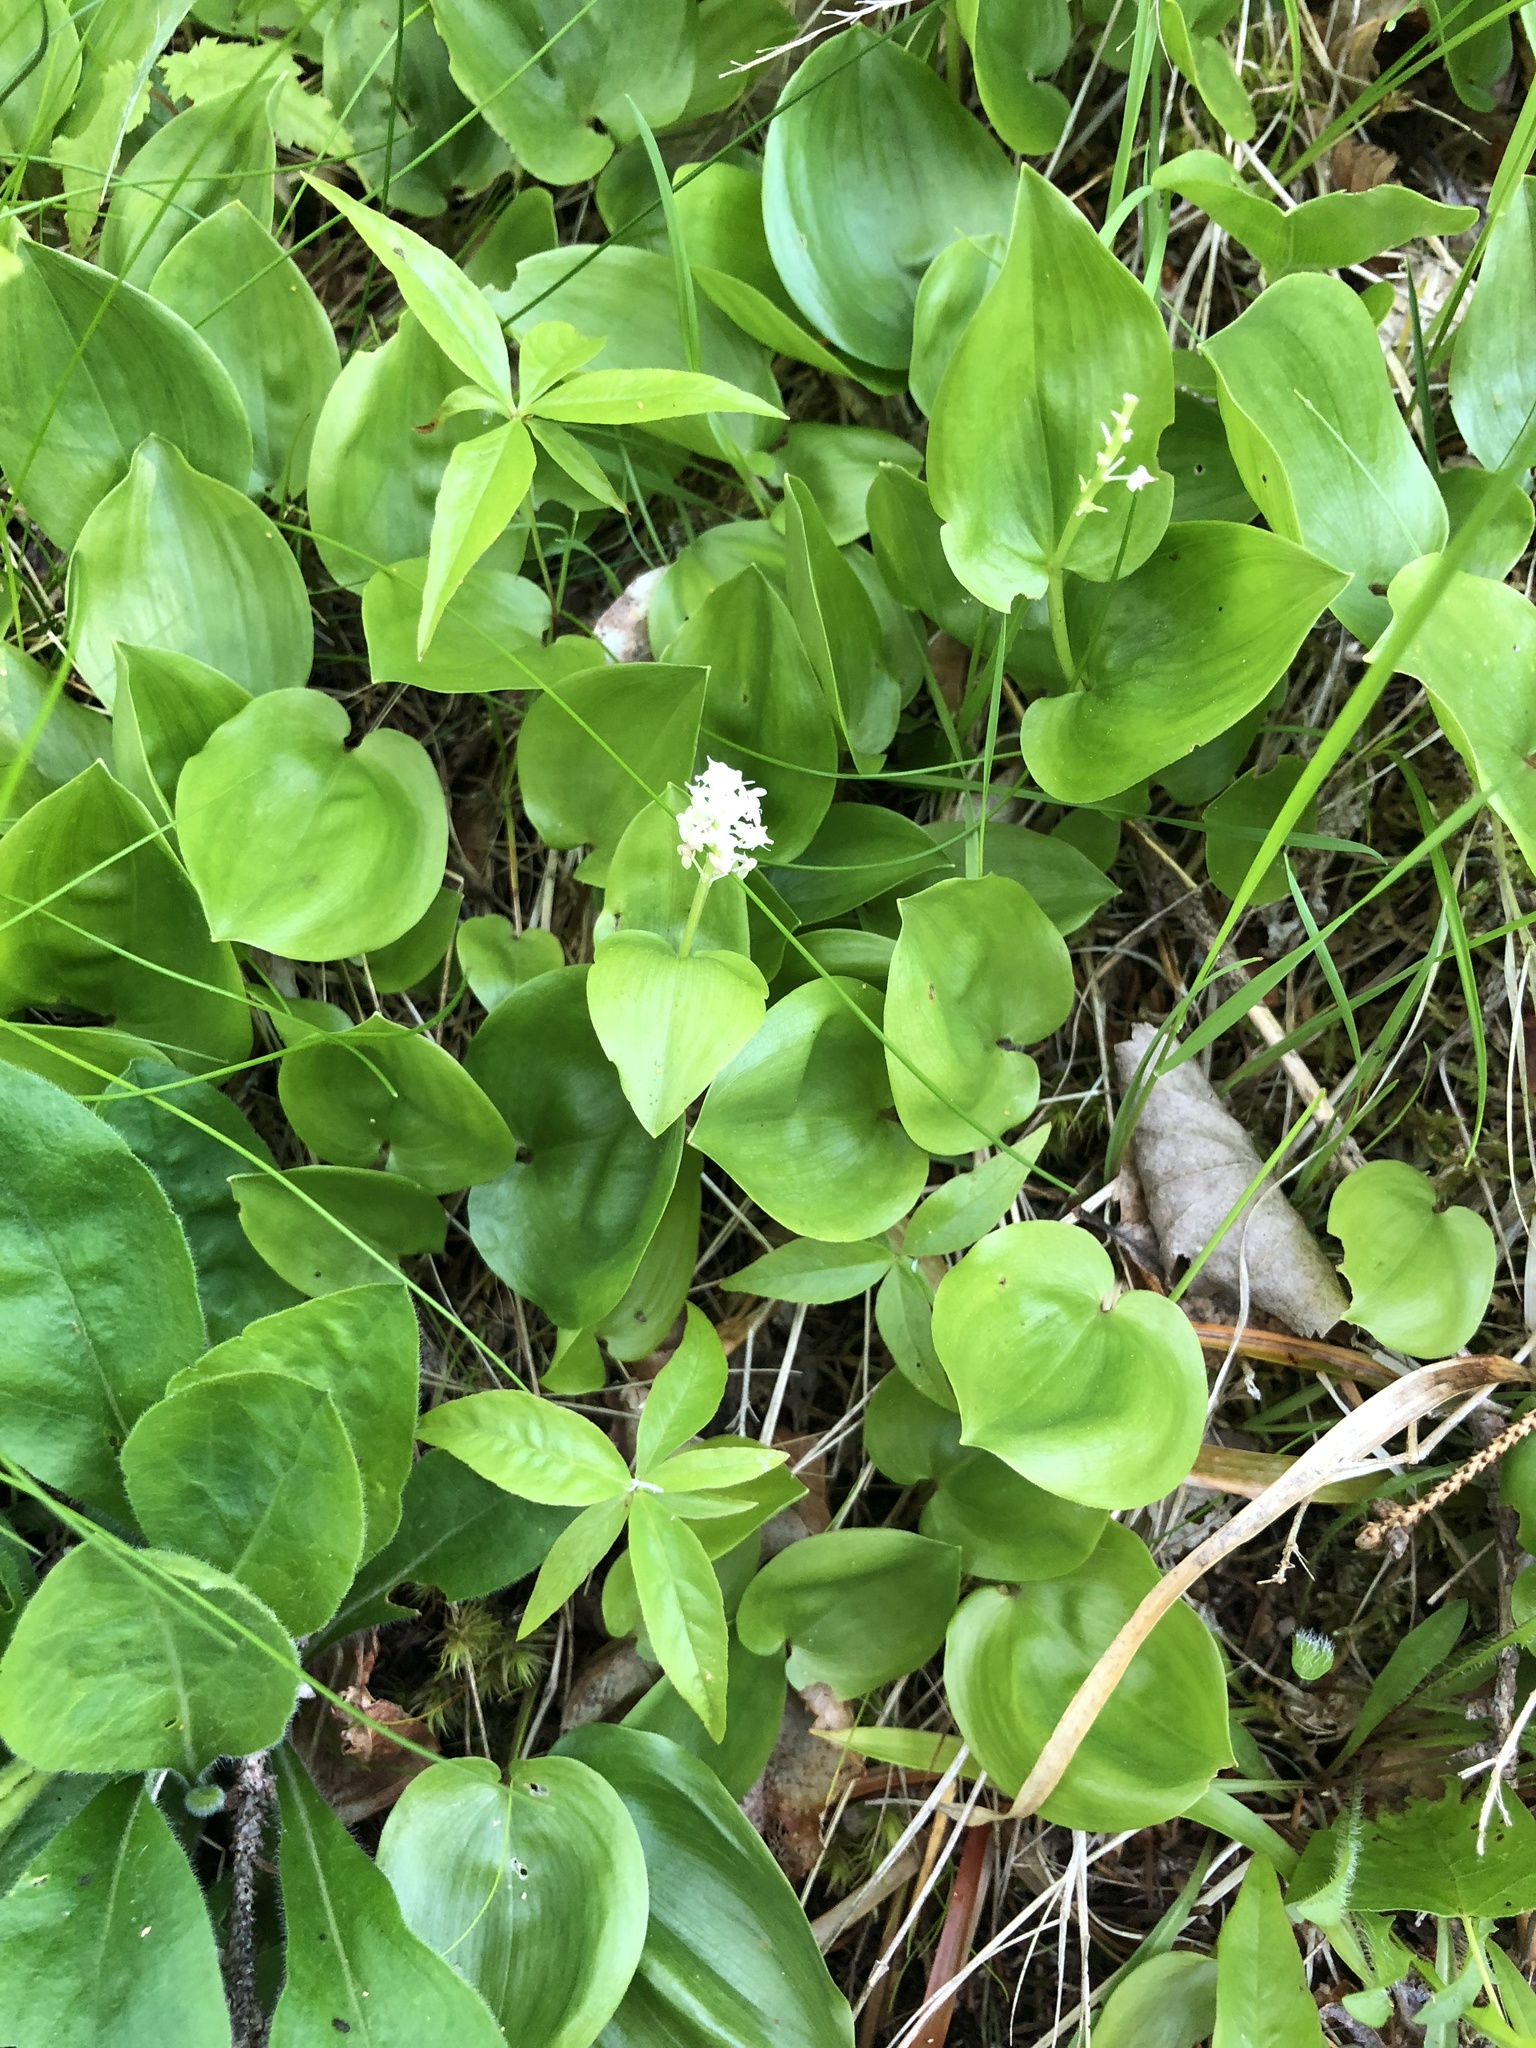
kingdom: Plantae
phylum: Tracheophyta
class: Liliopsida
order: Asparagales
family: Asparagaceae
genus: Maianthemum
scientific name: Maianthemum canadense
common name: False lily-of-the-valley
